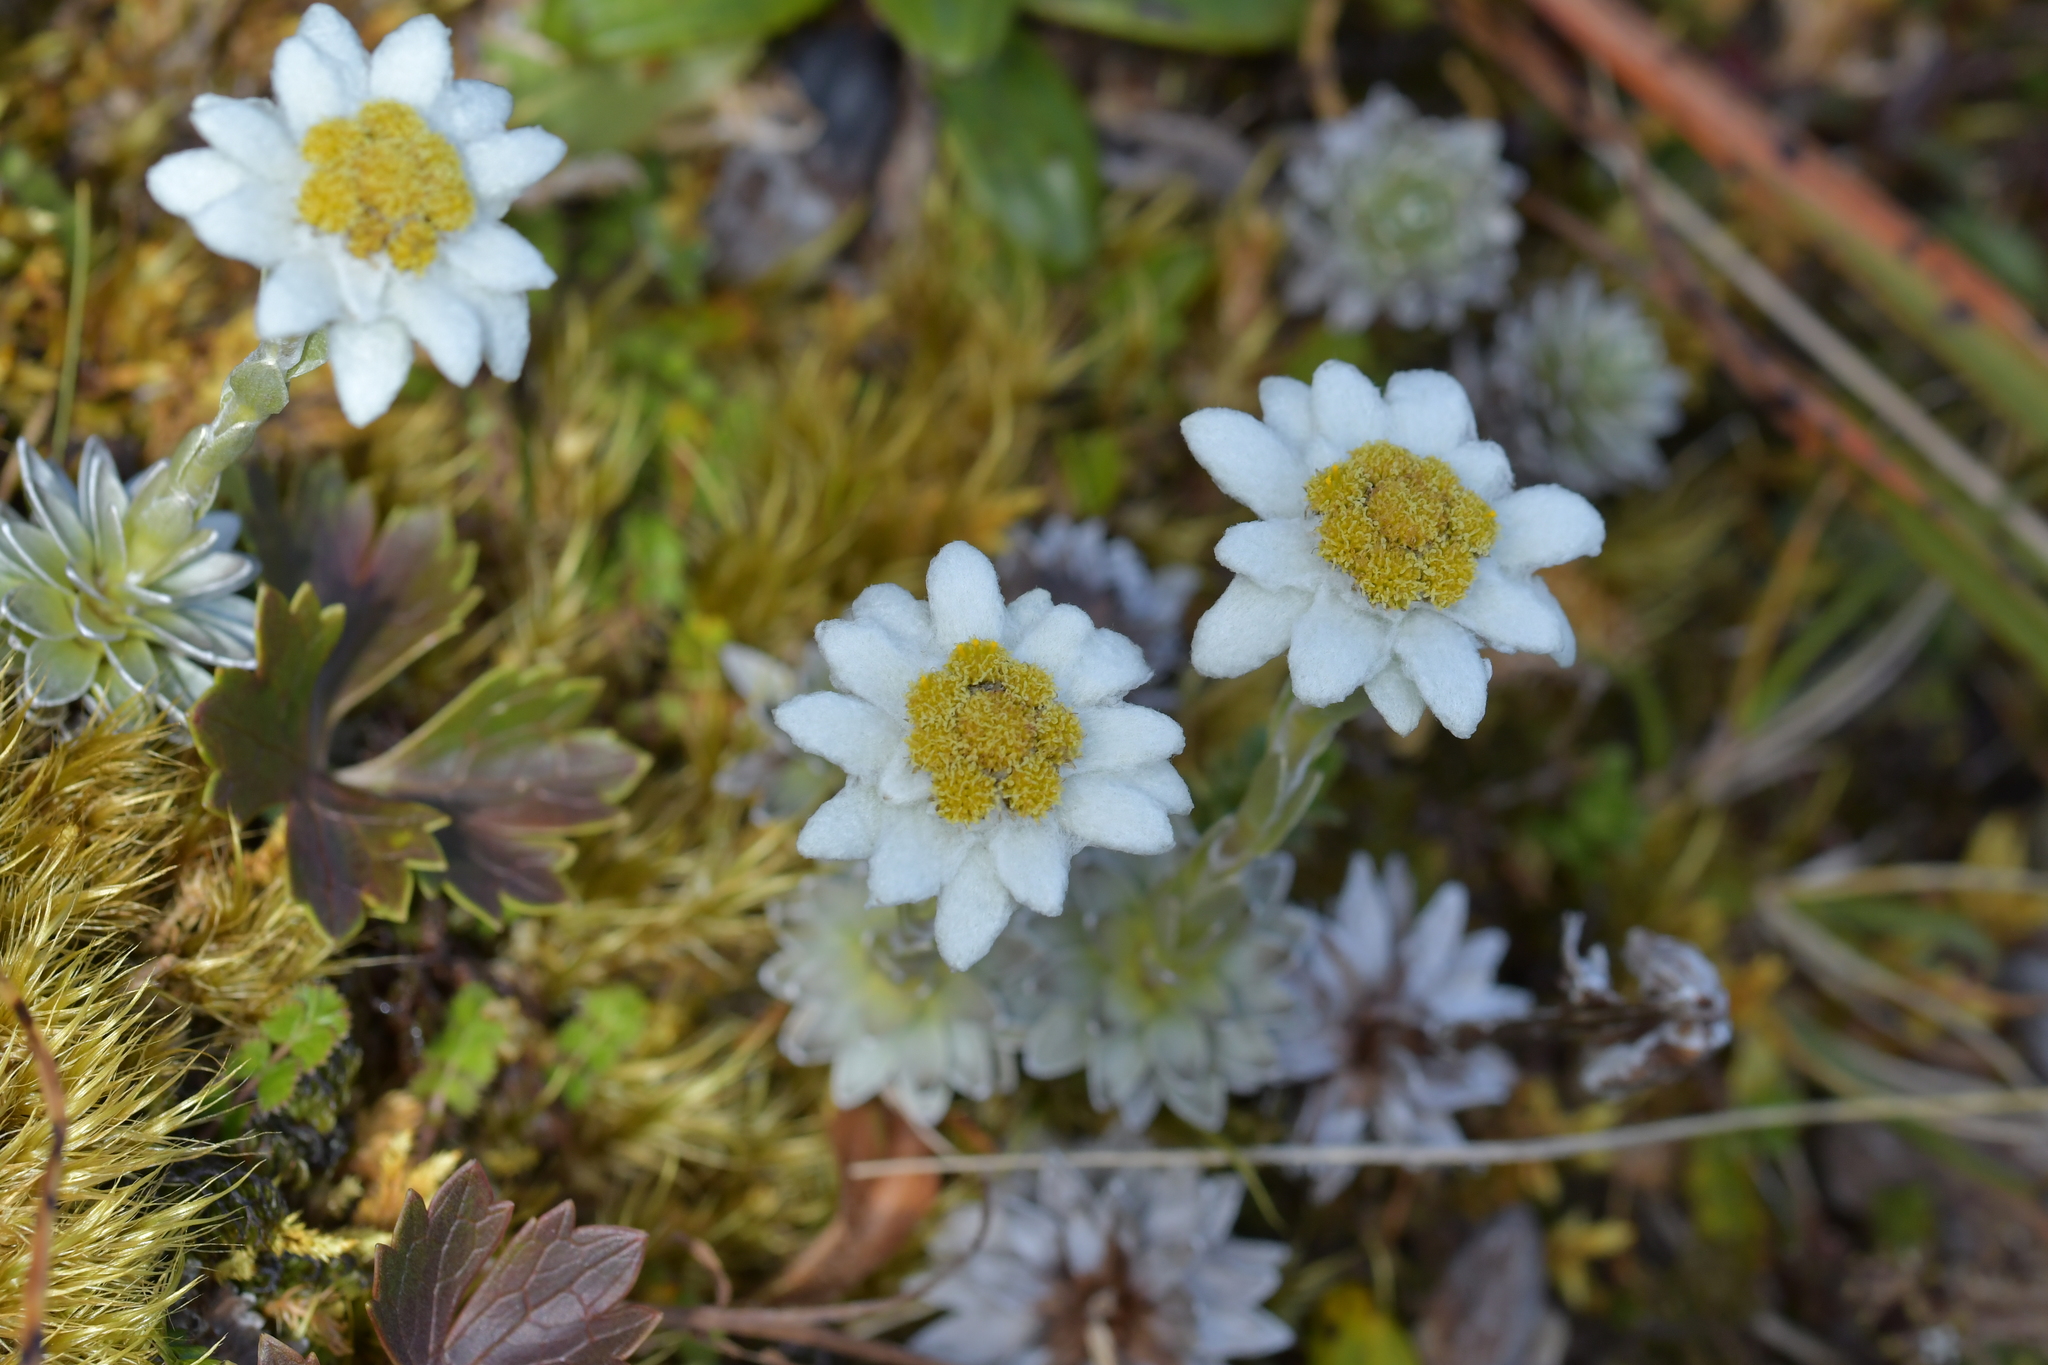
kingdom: Plantae
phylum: Tracheophyta
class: Magnoliopsida
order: Asterales
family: Asteraceae
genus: Leucogenes
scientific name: Leucogenes leontopodium
